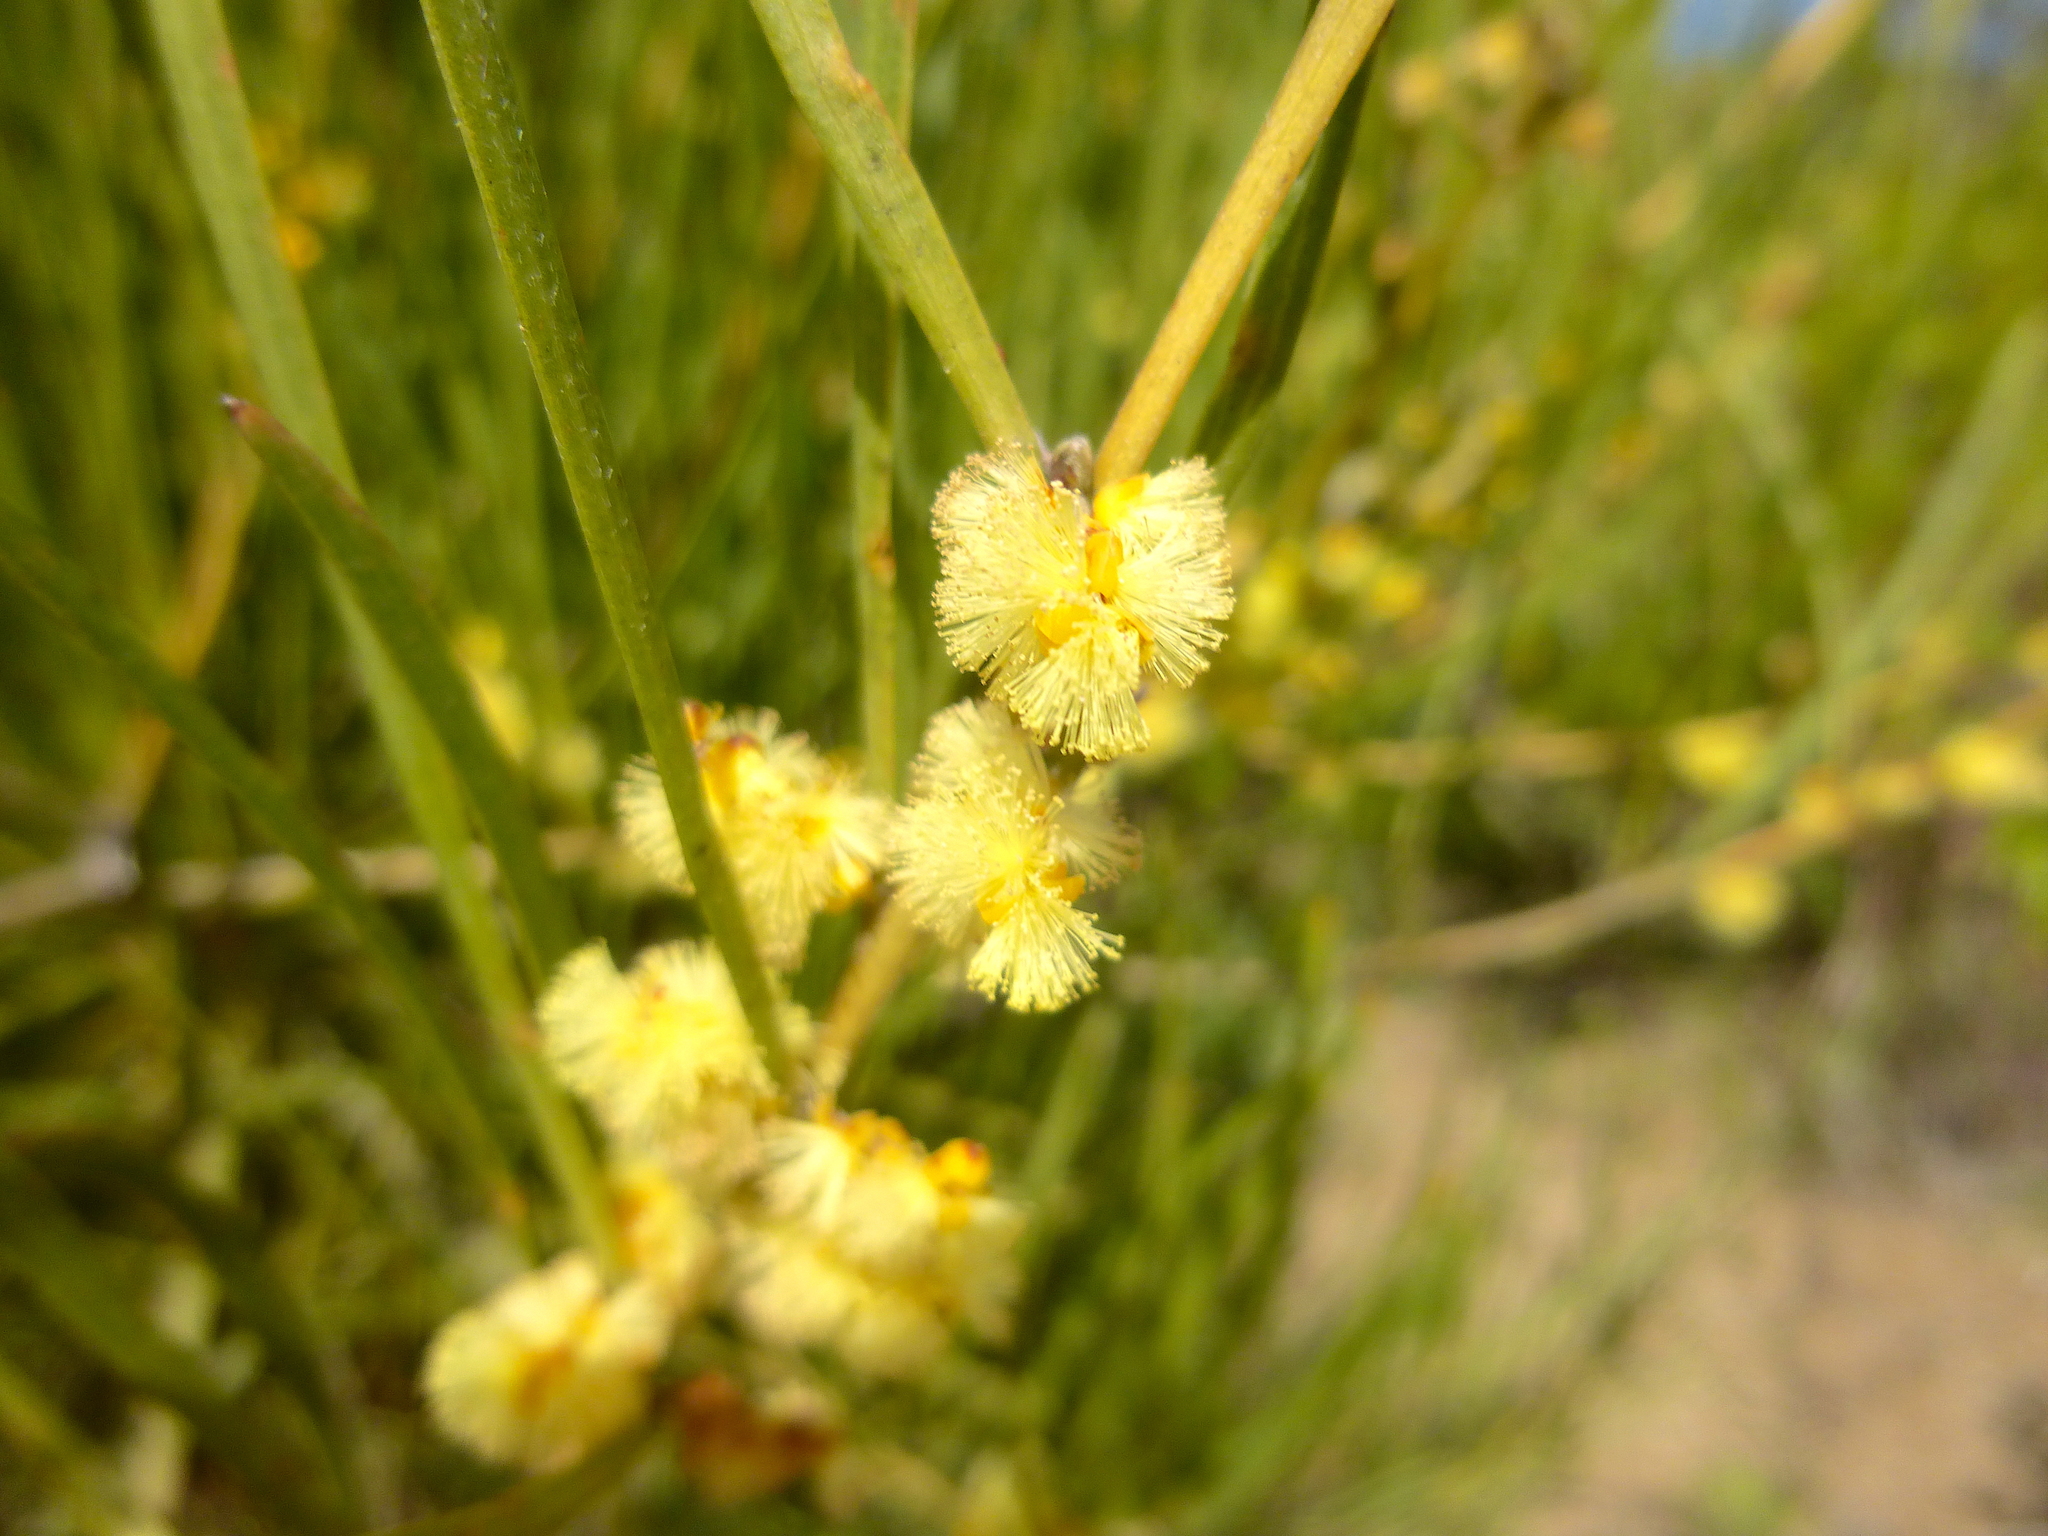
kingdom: Plantae
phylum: Tracheophyta
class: Magnoliopsida
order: Fabales
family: Fabaceae
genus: Acacia
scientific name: Acacia mucronata
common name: Variable sallow wattle
